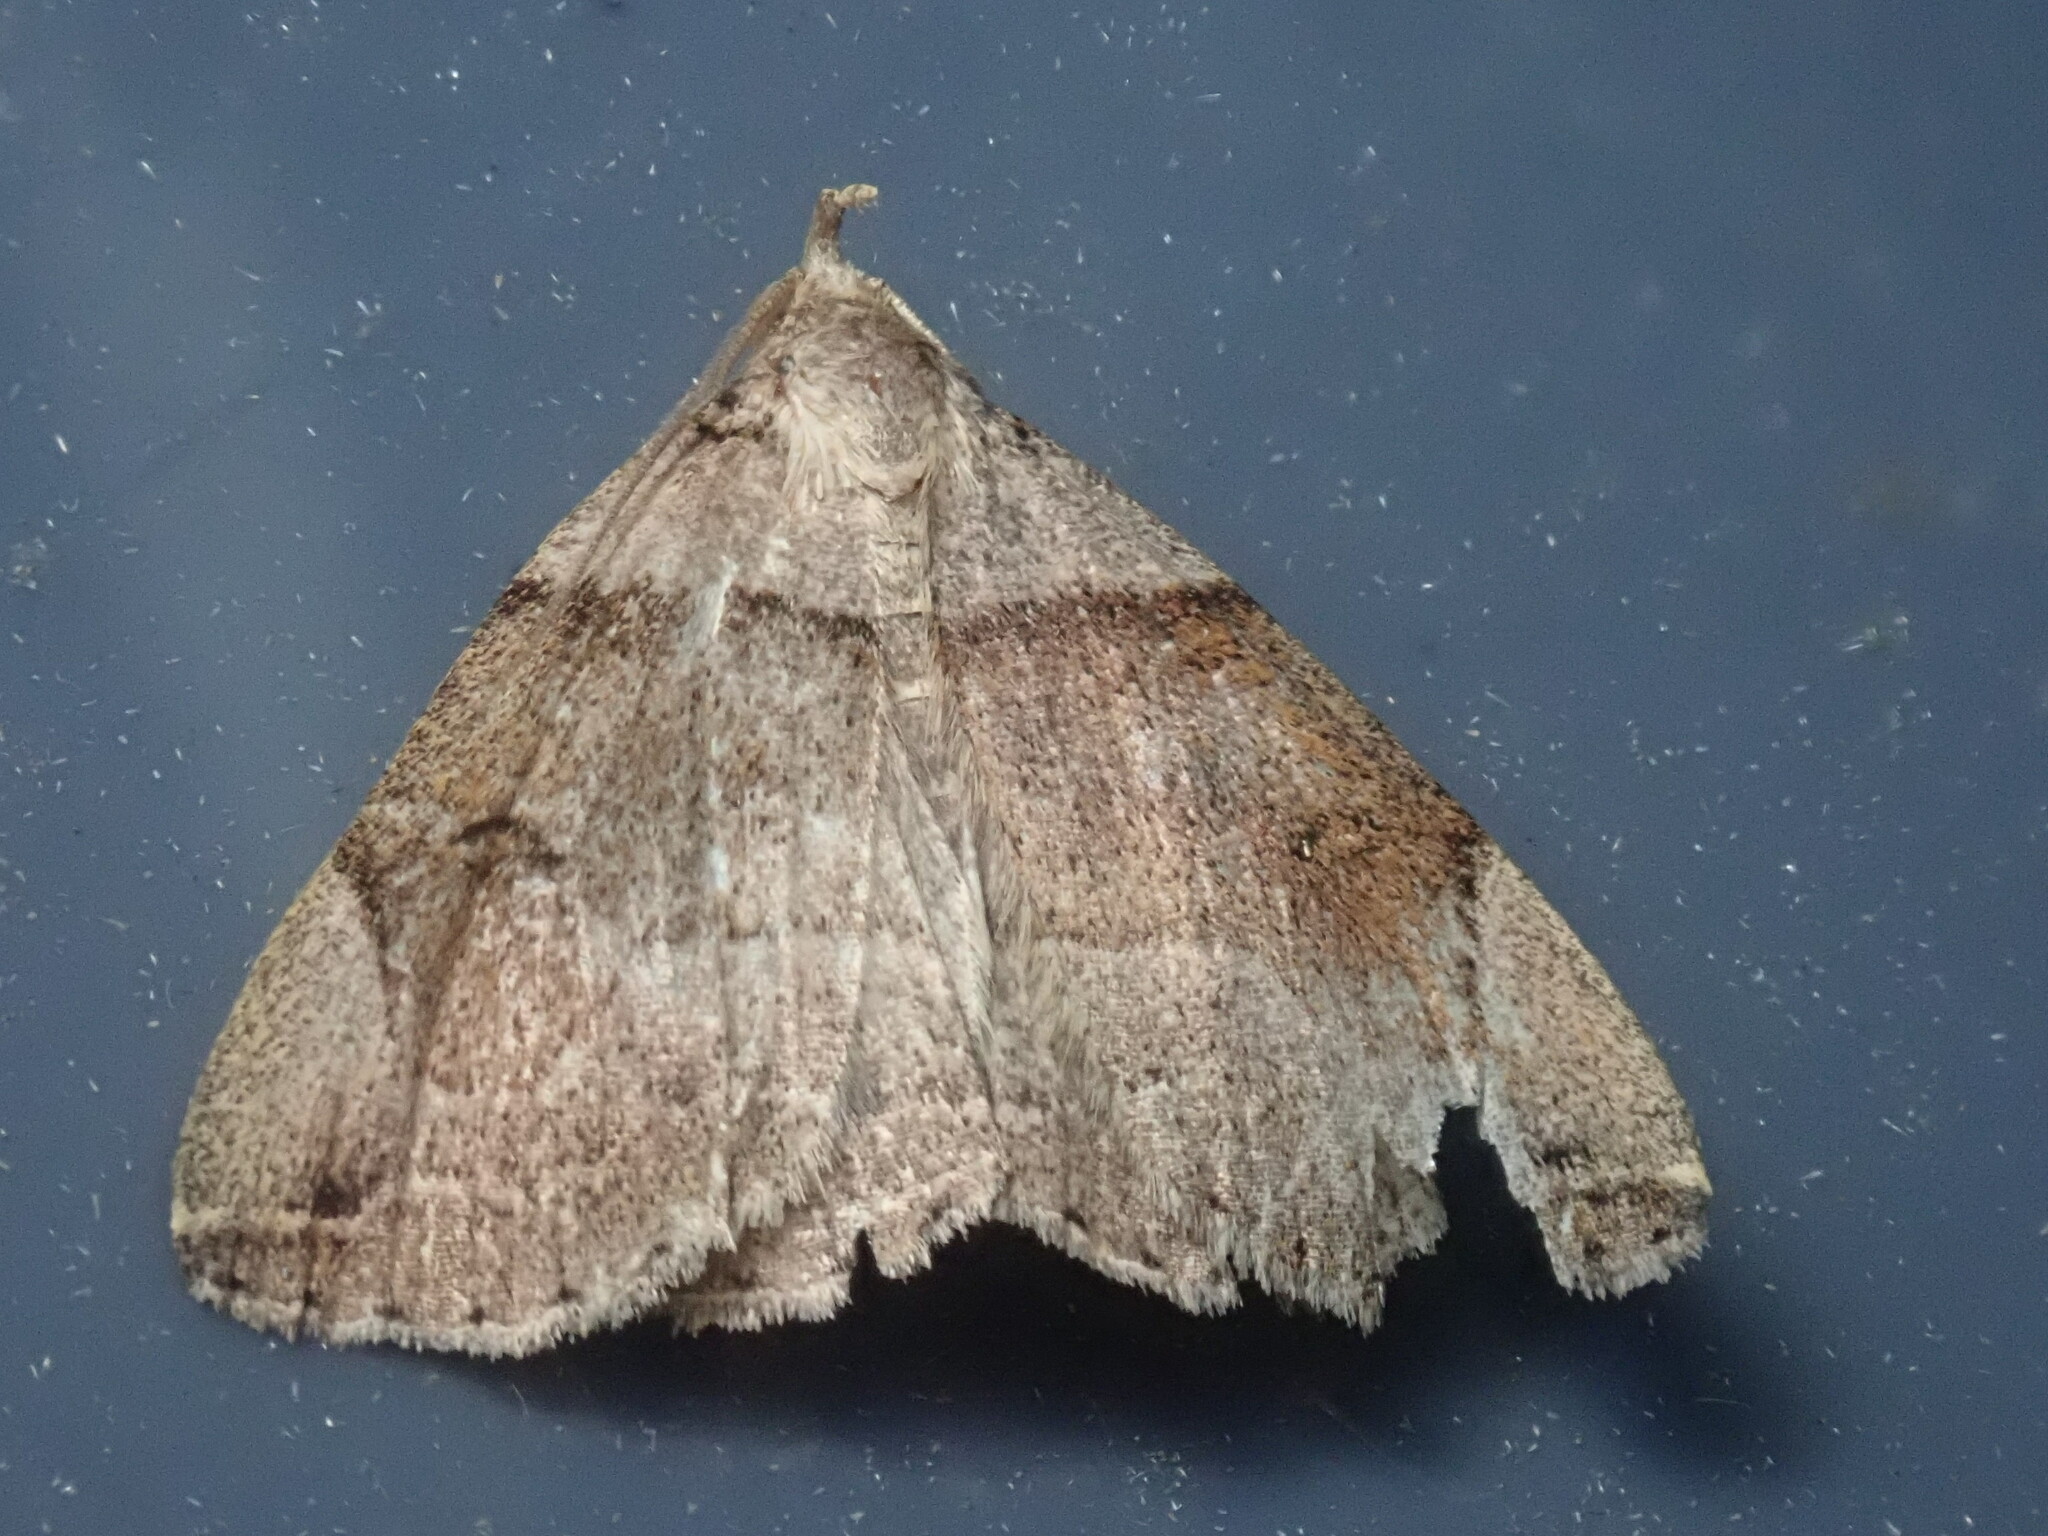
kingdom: Animalia
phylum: Arthropoda
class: Insecta
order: Lepidoptera
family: Erebidae
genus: Zanclognatha
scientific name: Zanclognatha laevigata
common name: Variable fan-foot
